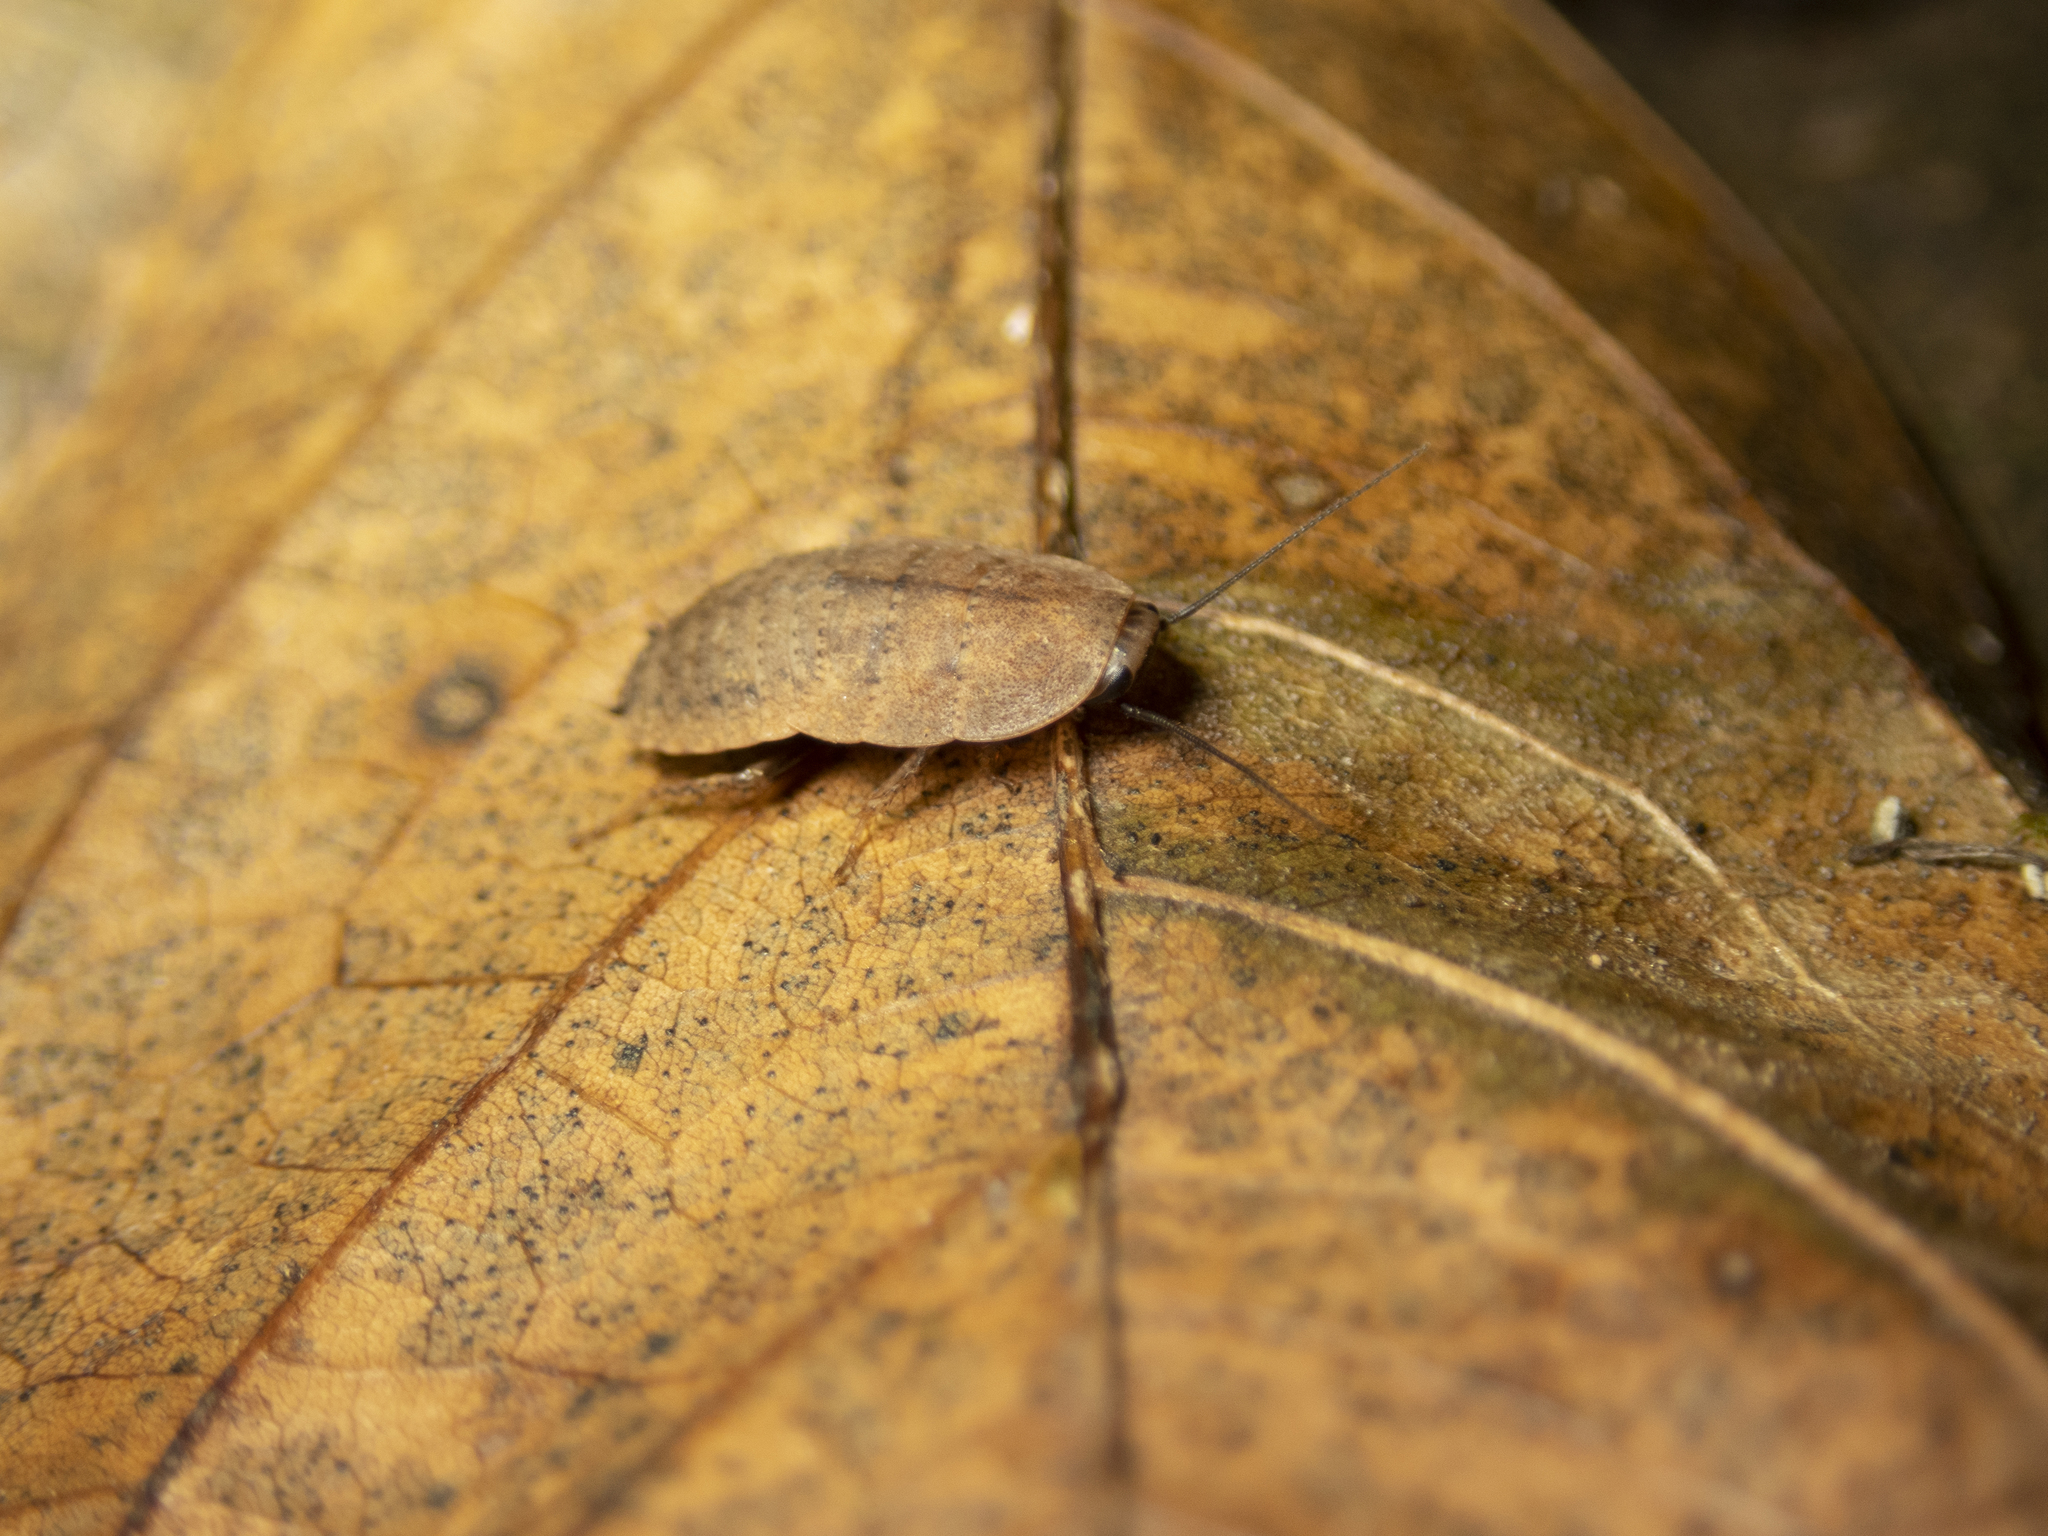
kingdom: Animalia
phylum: Arthropoda
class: Insecta
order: Blattodea
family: Blaberidae
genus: Opisthoplatia
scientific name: Opisthoplatia orientalis
